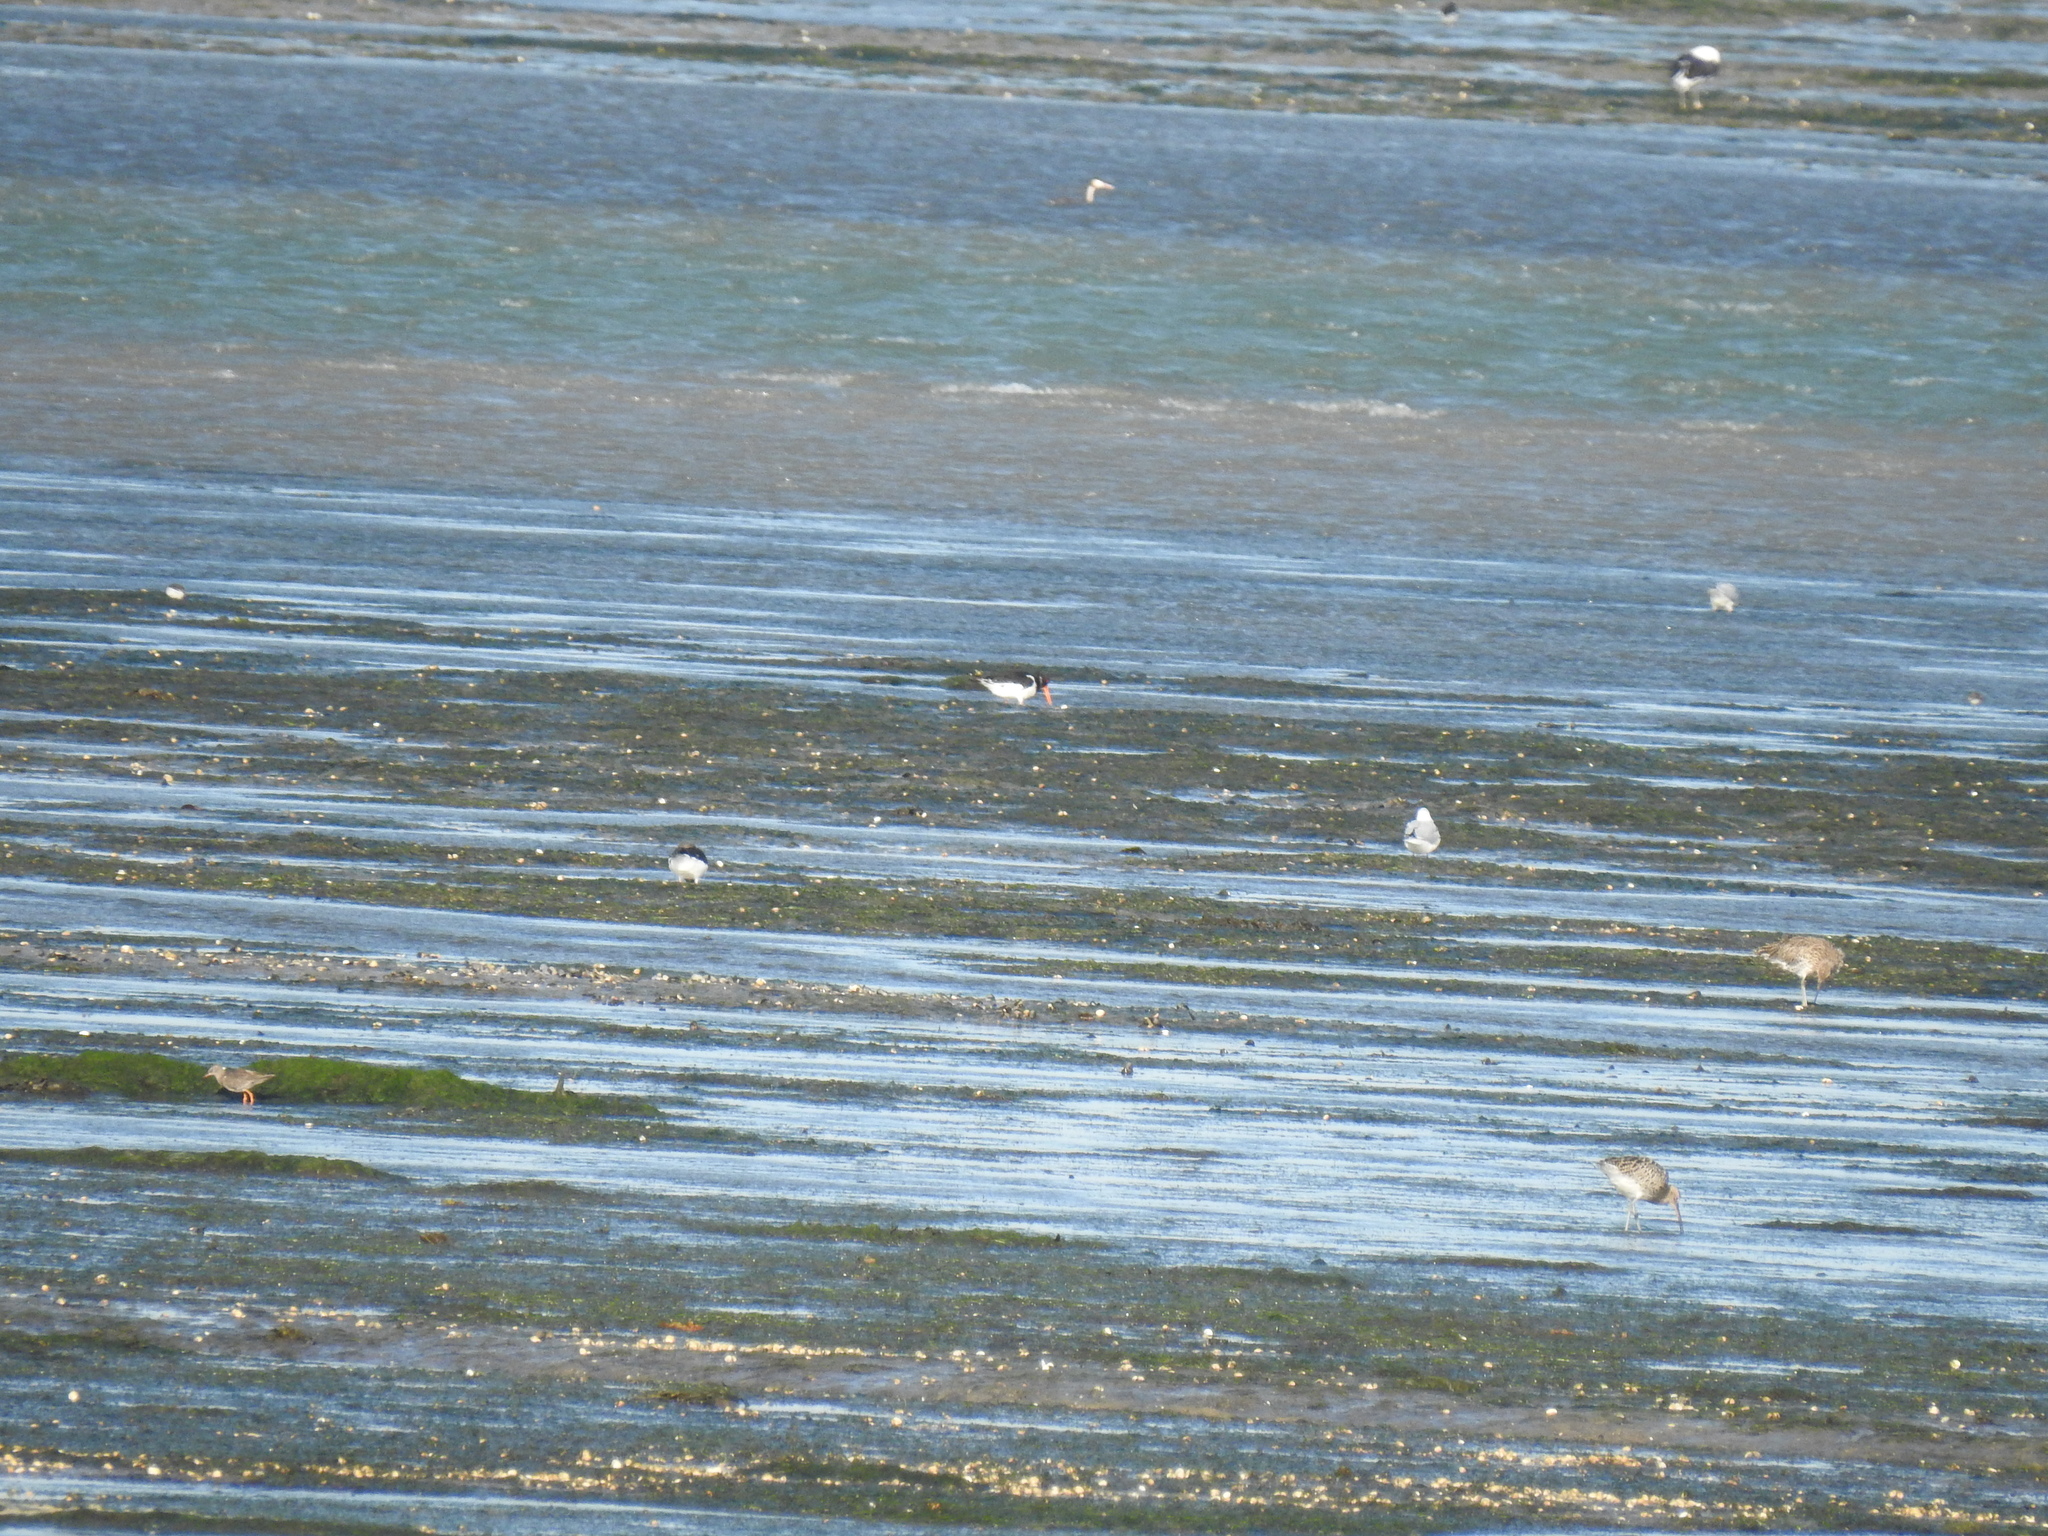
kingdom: Animalia
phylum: Chordata
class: Aves
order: Charadriiformes
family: Haematopodidae
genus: Haematopus
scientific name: Haematopus ostralegus
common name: Eurasian oystercatcher
